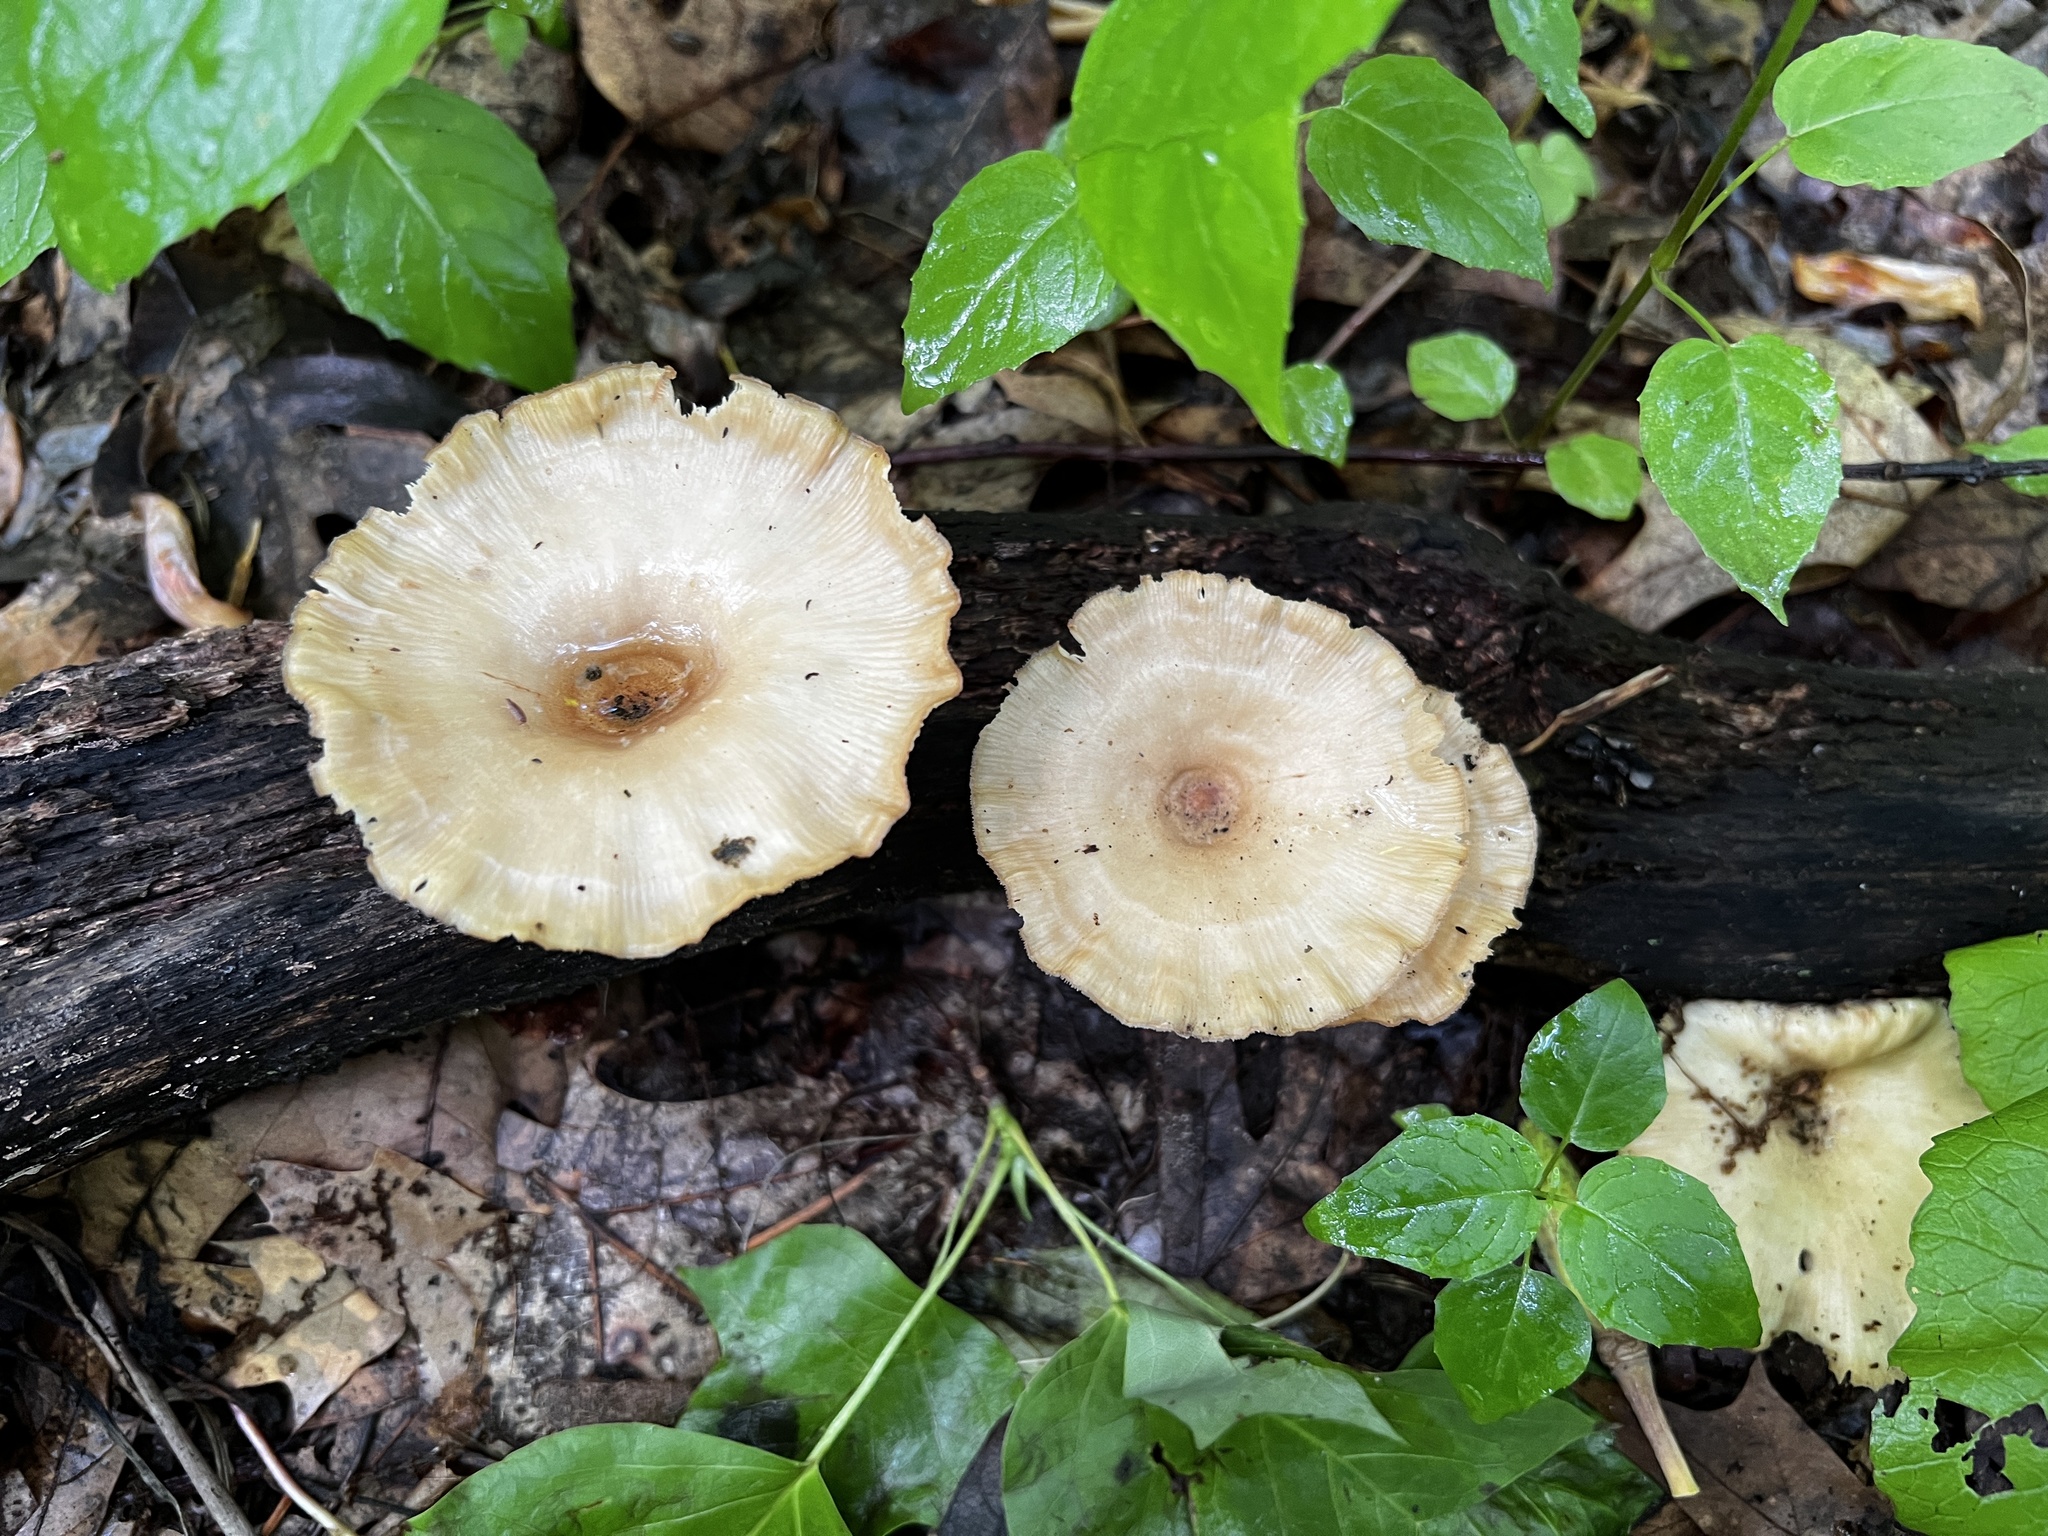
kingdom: Fungi
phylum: Basidiomycota
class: Agaricomycetes
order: Polyporales
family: Panaceae
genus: Panus
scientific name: Panus conchatus
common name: Lilac oysterling
